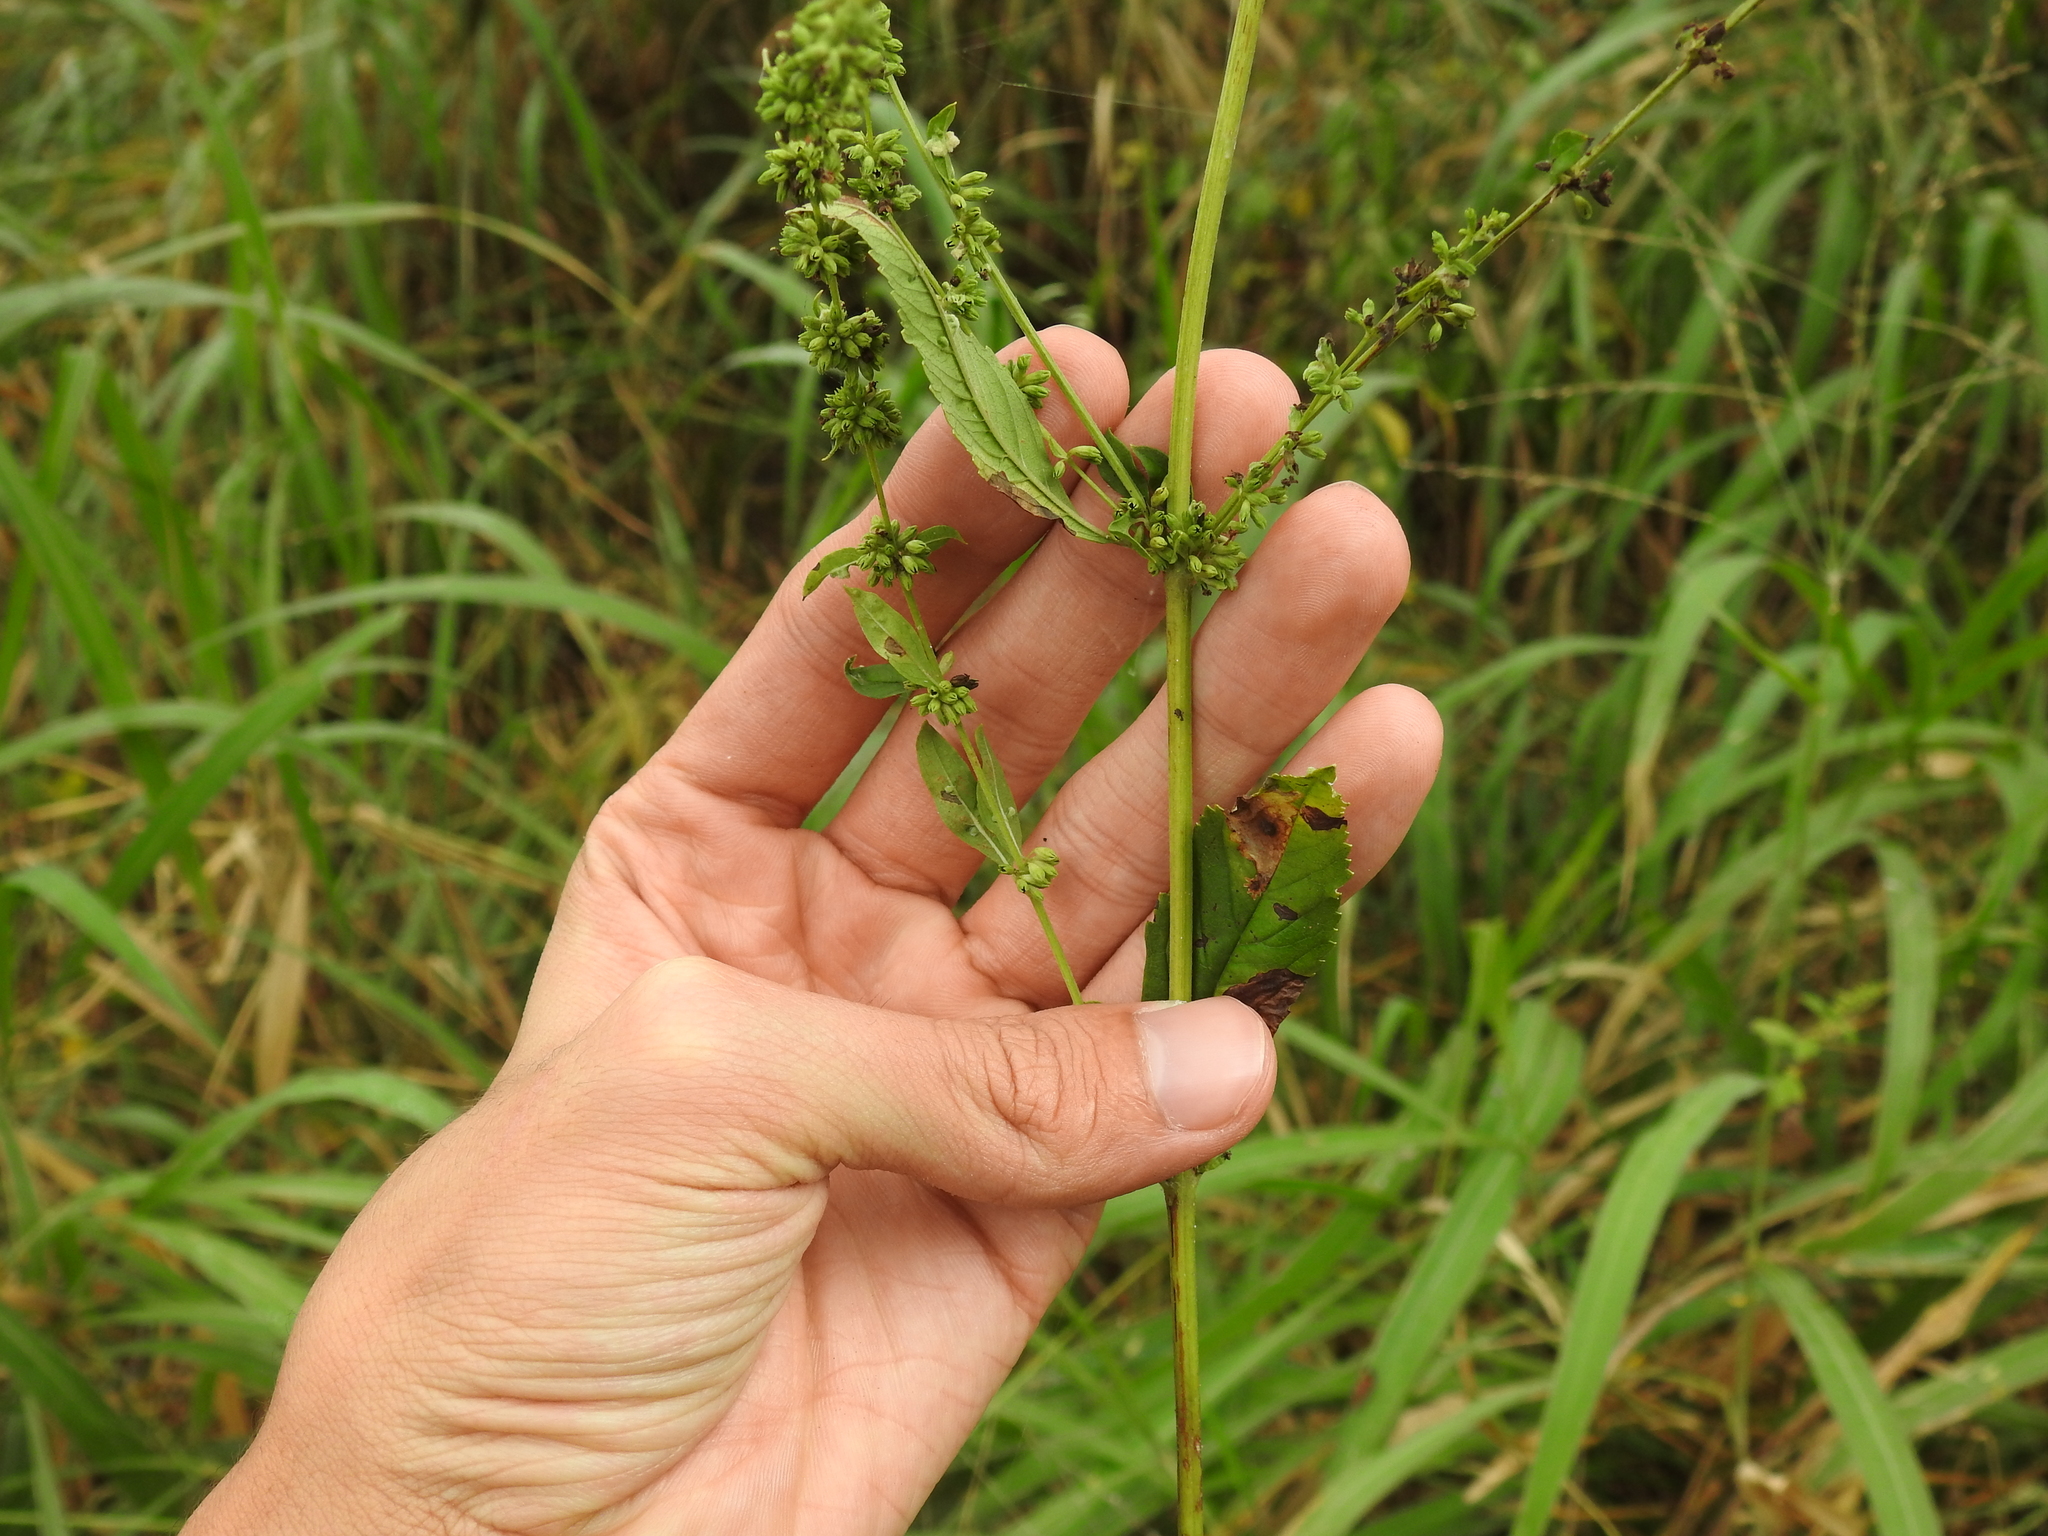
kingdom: Plantae
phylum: Tracheophyta
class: Magnoliopsida
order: Lamiales
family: Lamiaceae
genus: Condea
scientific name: Condea verticillata
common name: John charles
